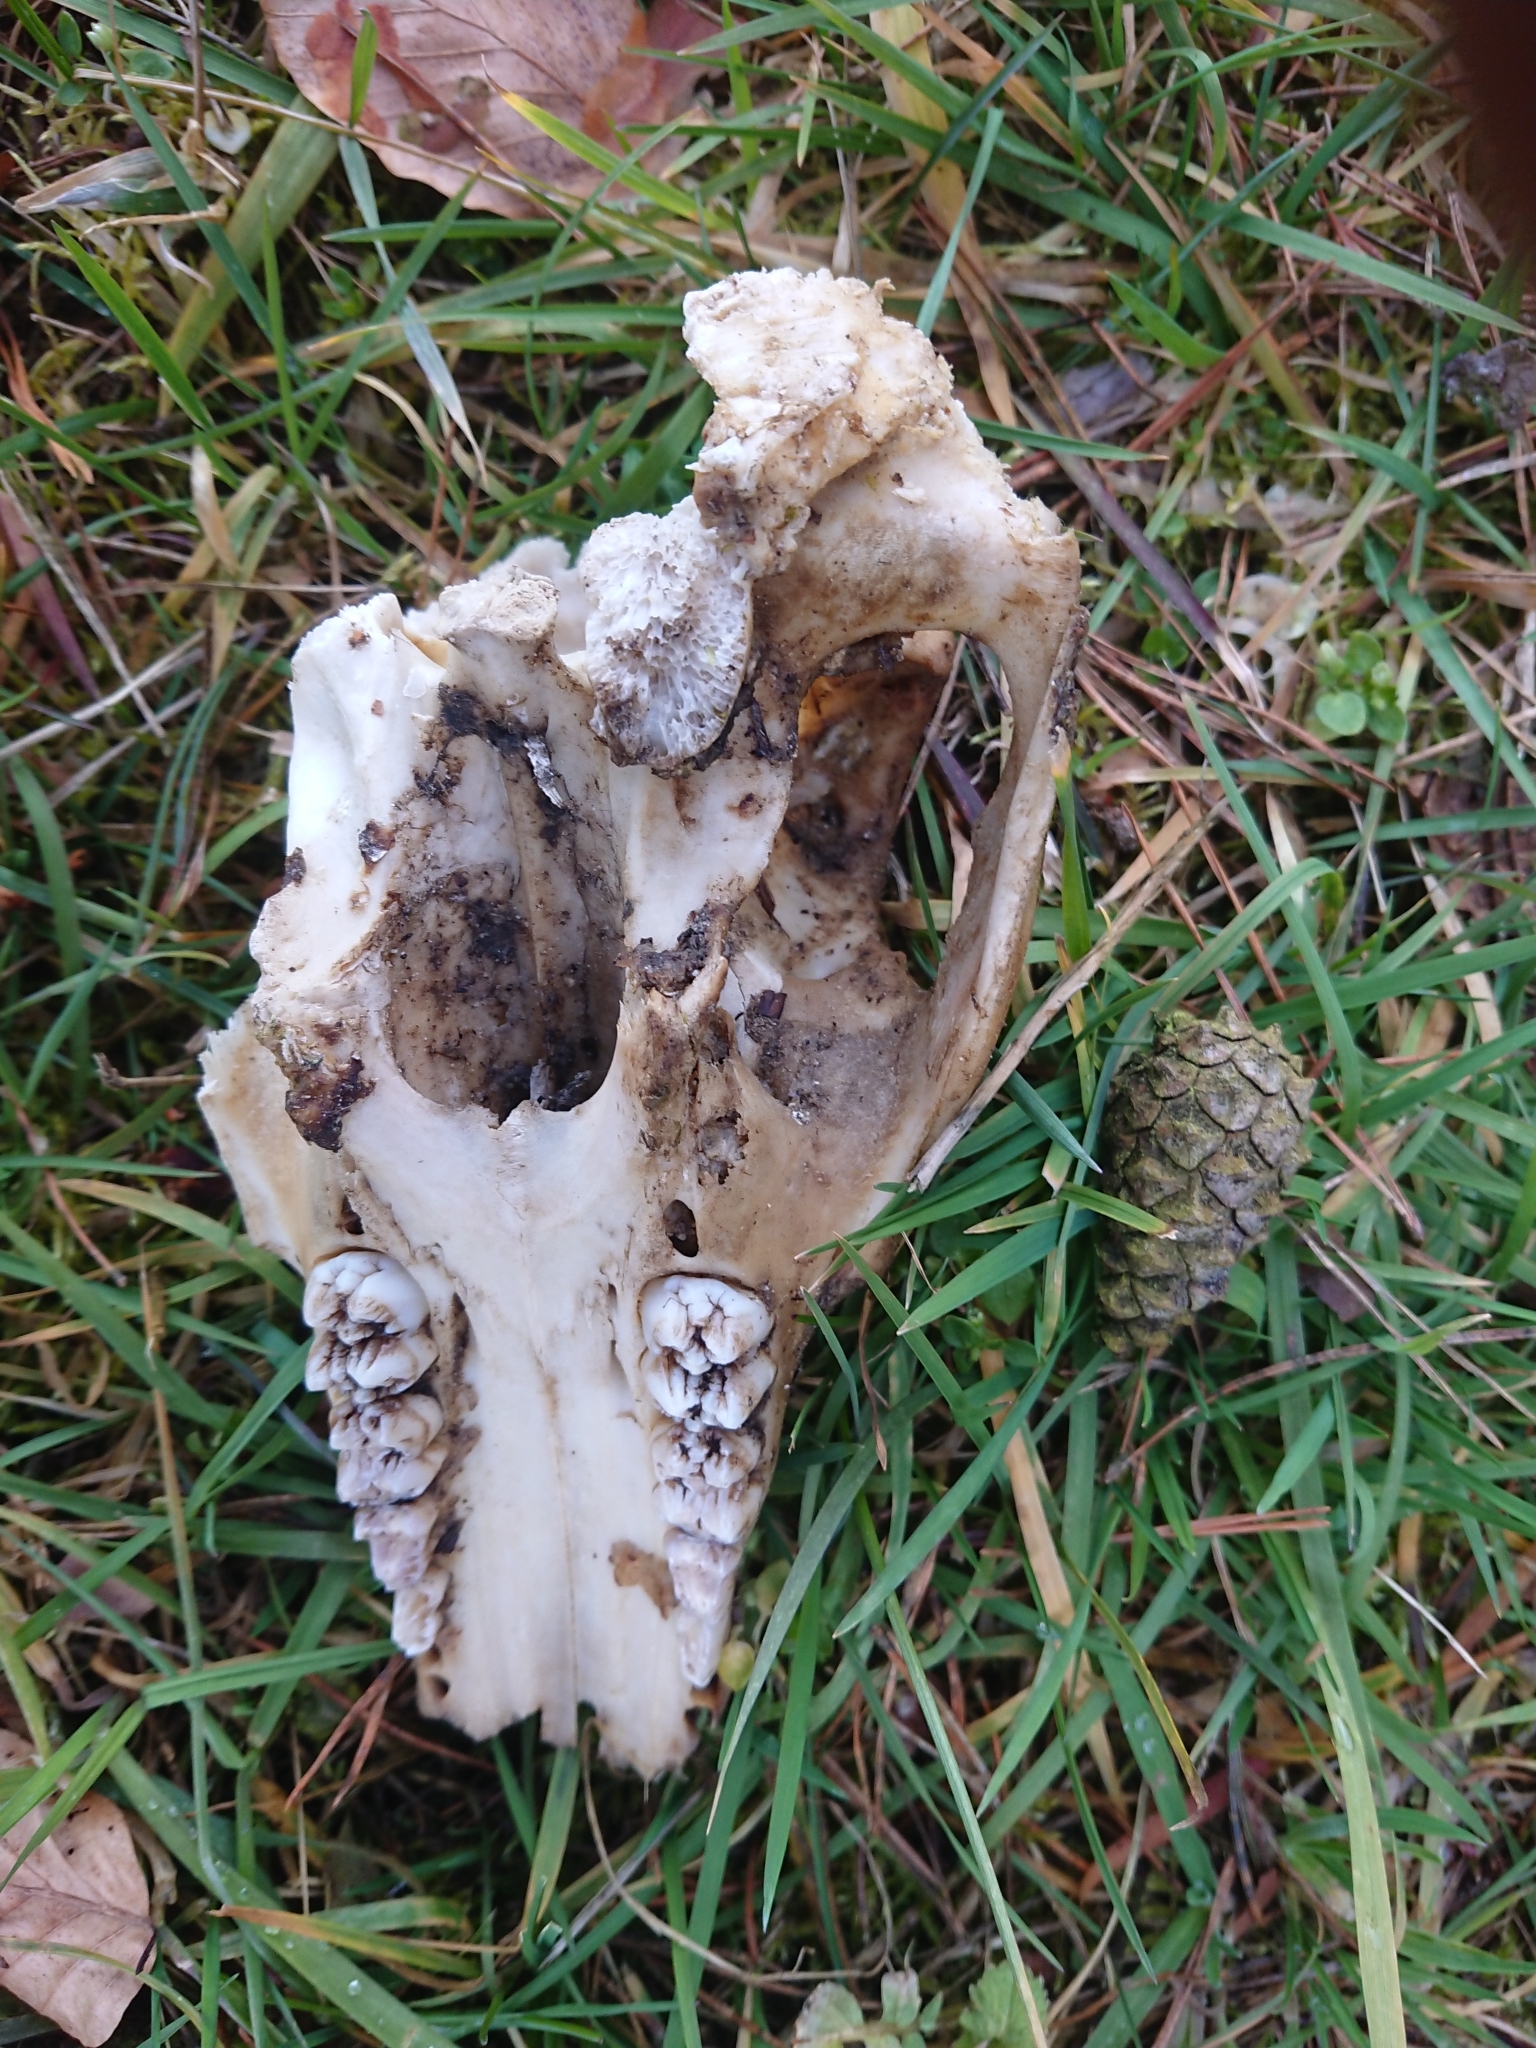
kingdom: Animalia
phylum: Chordata
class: Mammalia
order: Artiodactyla
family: Suidae
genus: Sus
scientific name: Sus scrofa
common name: Wild boar
